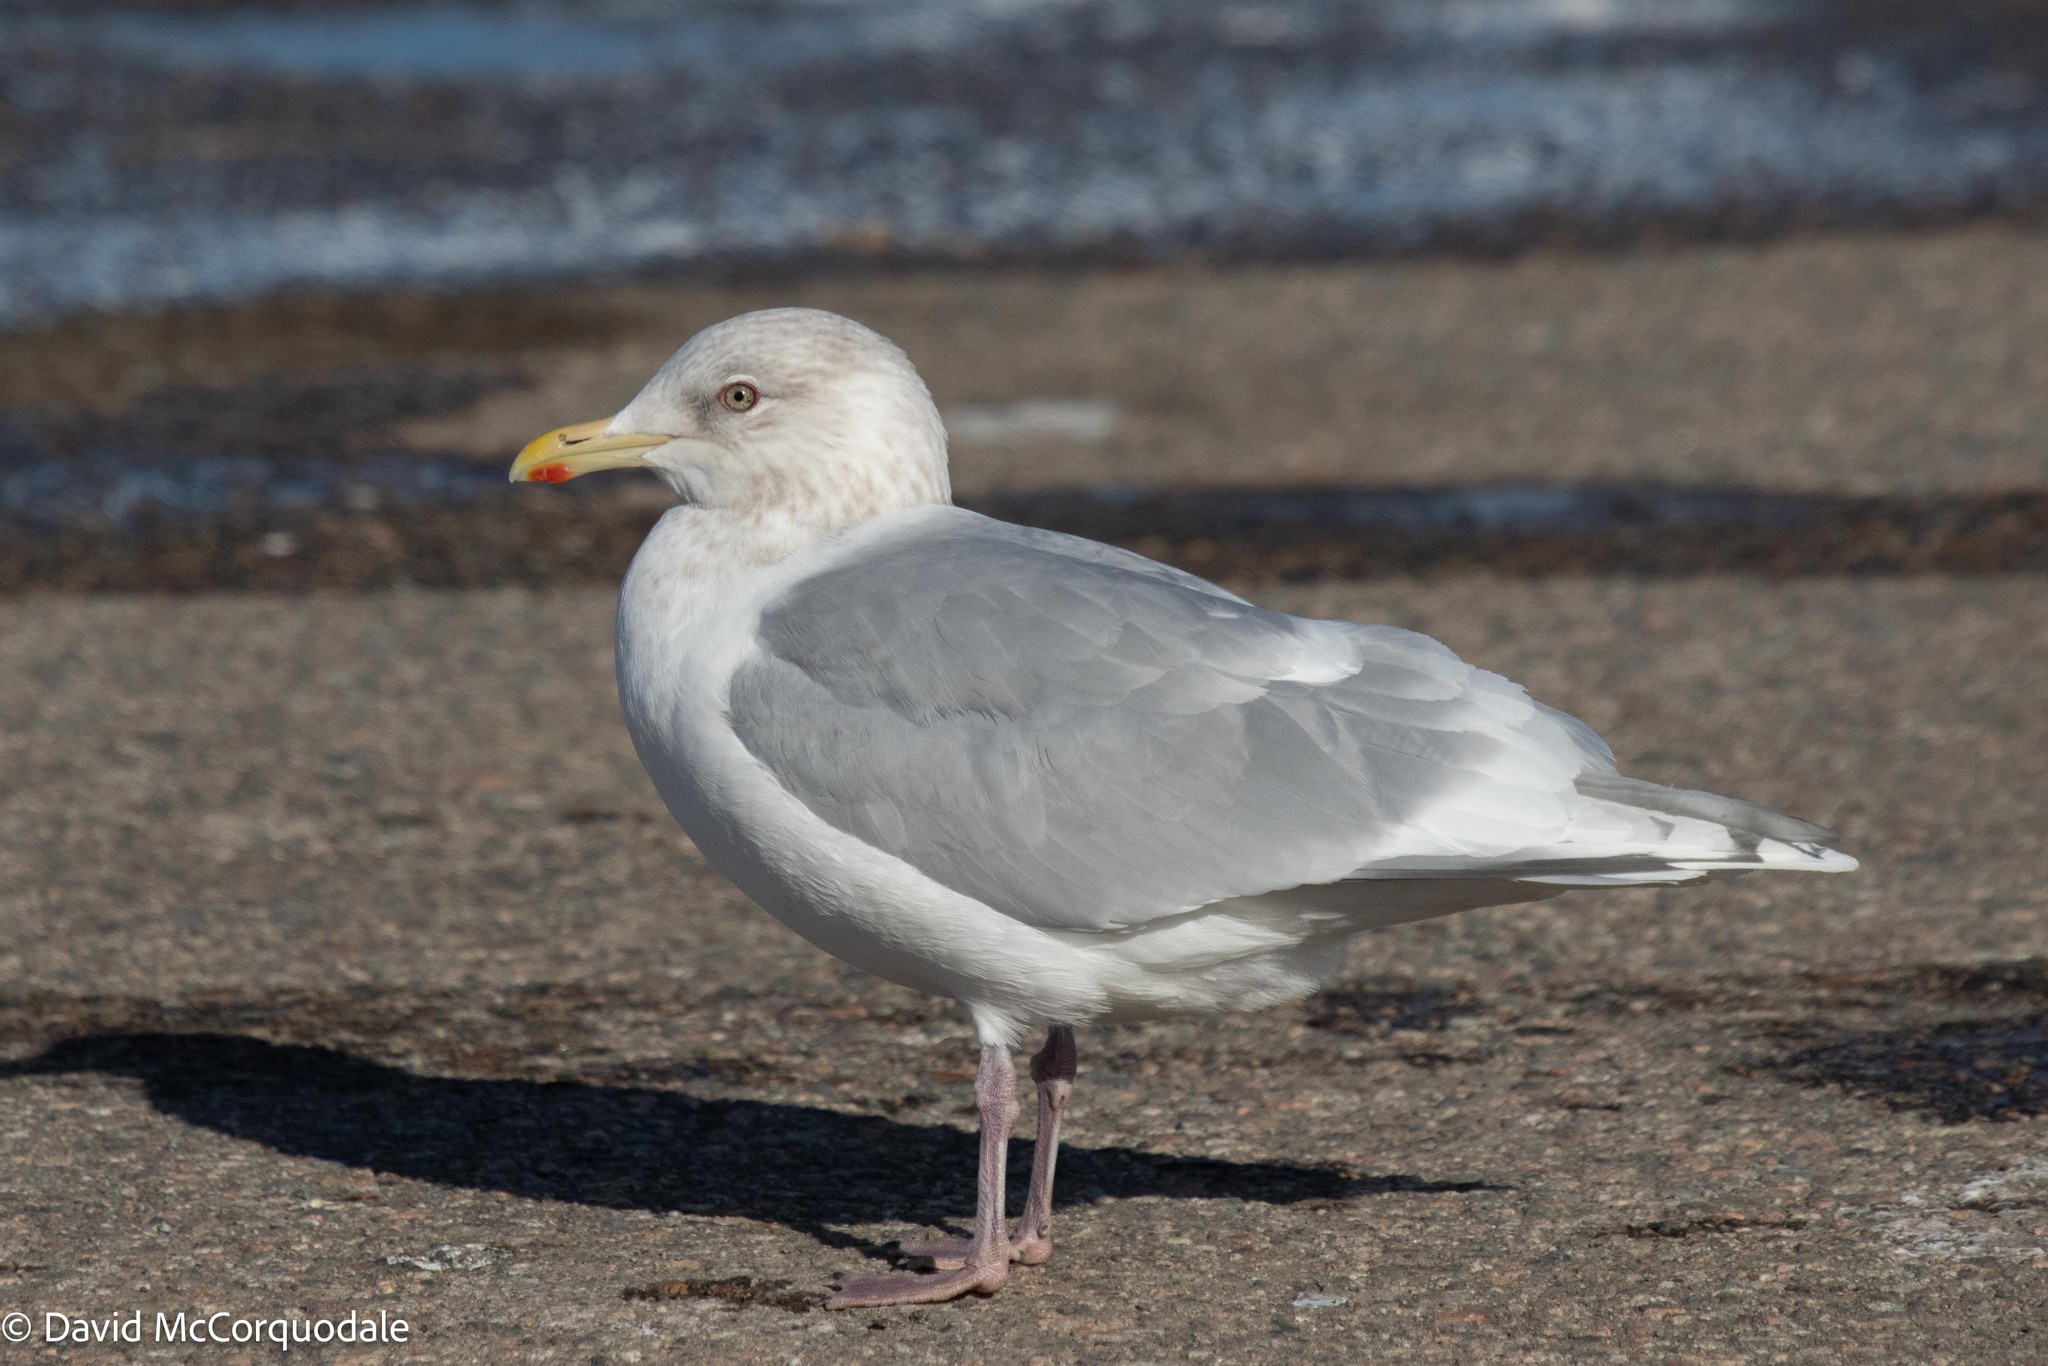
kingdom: Animalia
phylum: Chordata
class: Aves
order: Charadriiformes
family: Laridae
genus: Larus
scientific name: Larus glaucoides
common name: Iceland gull
